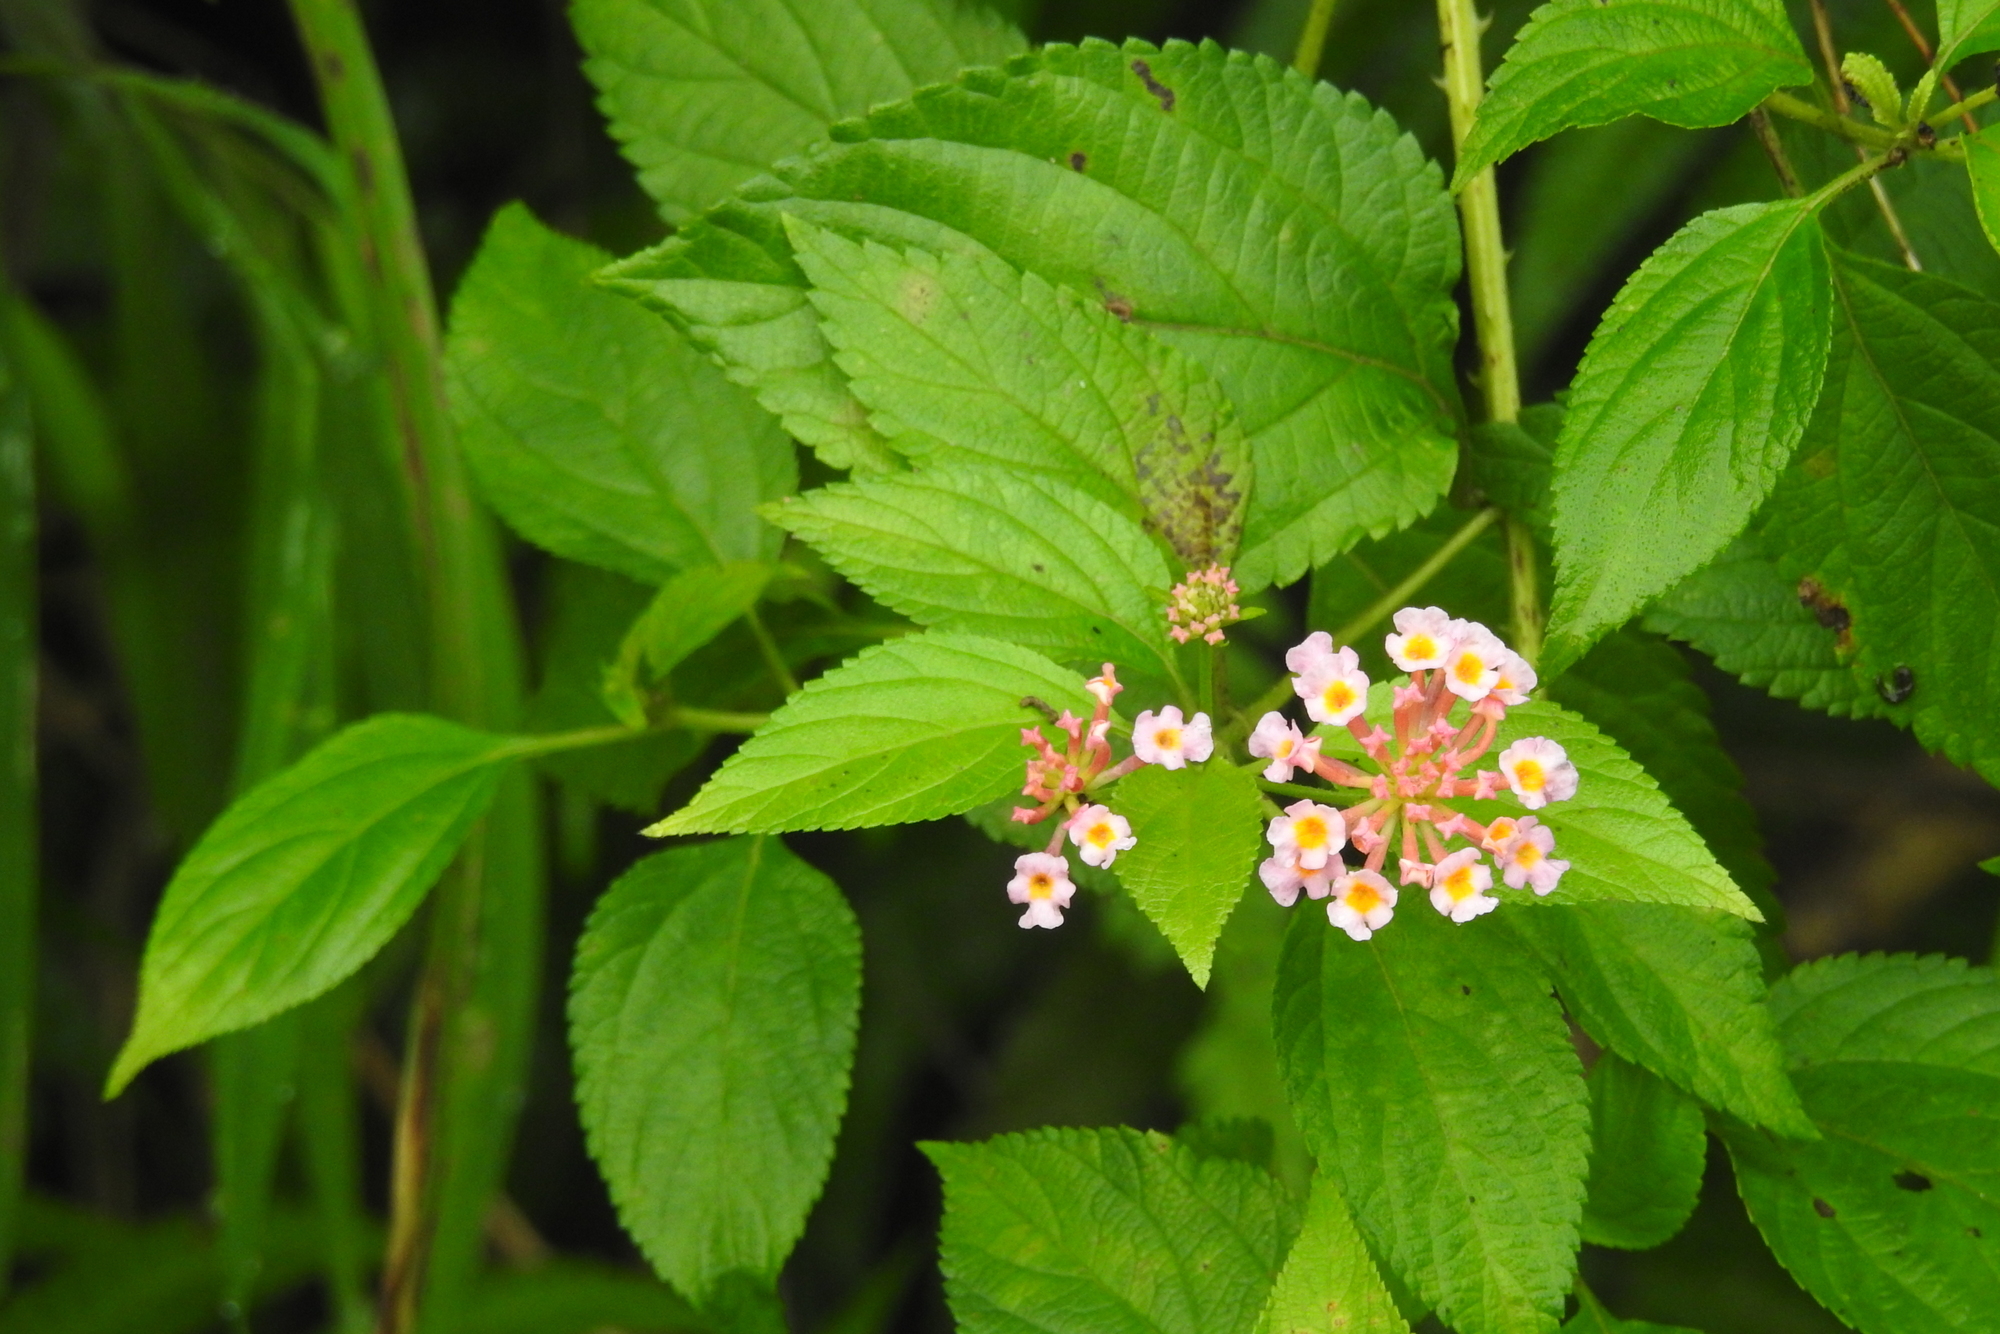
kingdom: Plantae
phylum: Tracheophyta
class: Magnoliopsida
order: Lamiales
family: Verbenaceae
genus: Lantana
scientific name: Lantana camara
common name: Lantana
